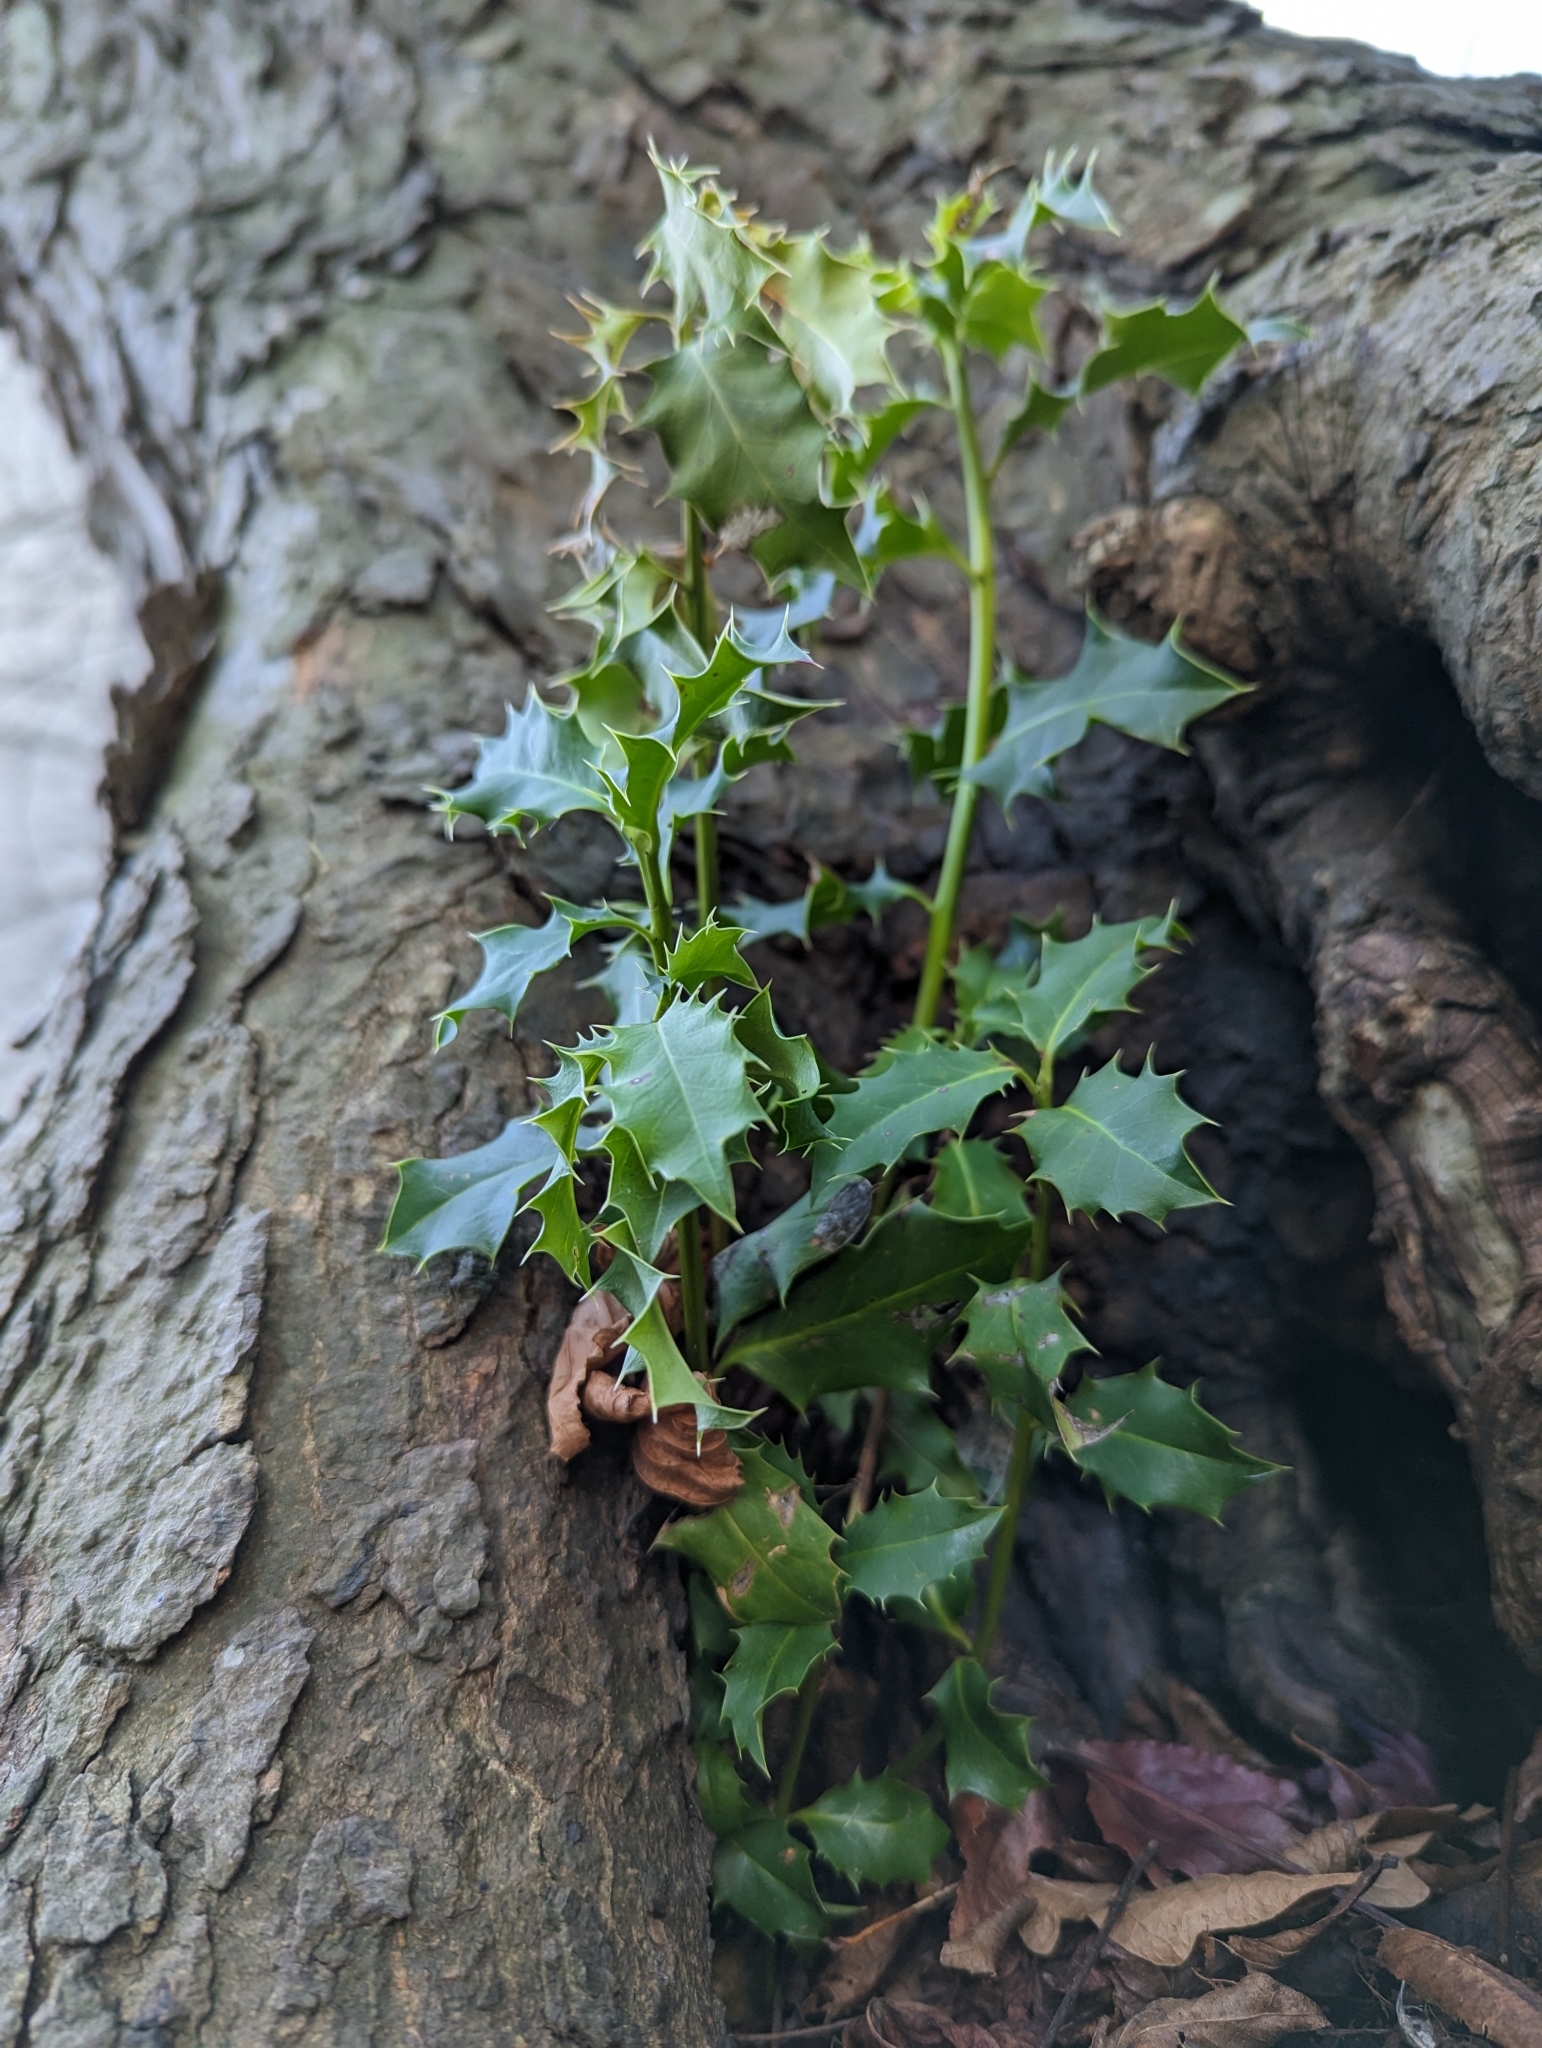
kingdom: Plantae
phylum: Tracheophyta
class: Magnoliopsida
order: Aquifoliales
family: Aquifoliaceae
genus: Ilex
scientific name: Ilex aquifolium
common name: English holly
